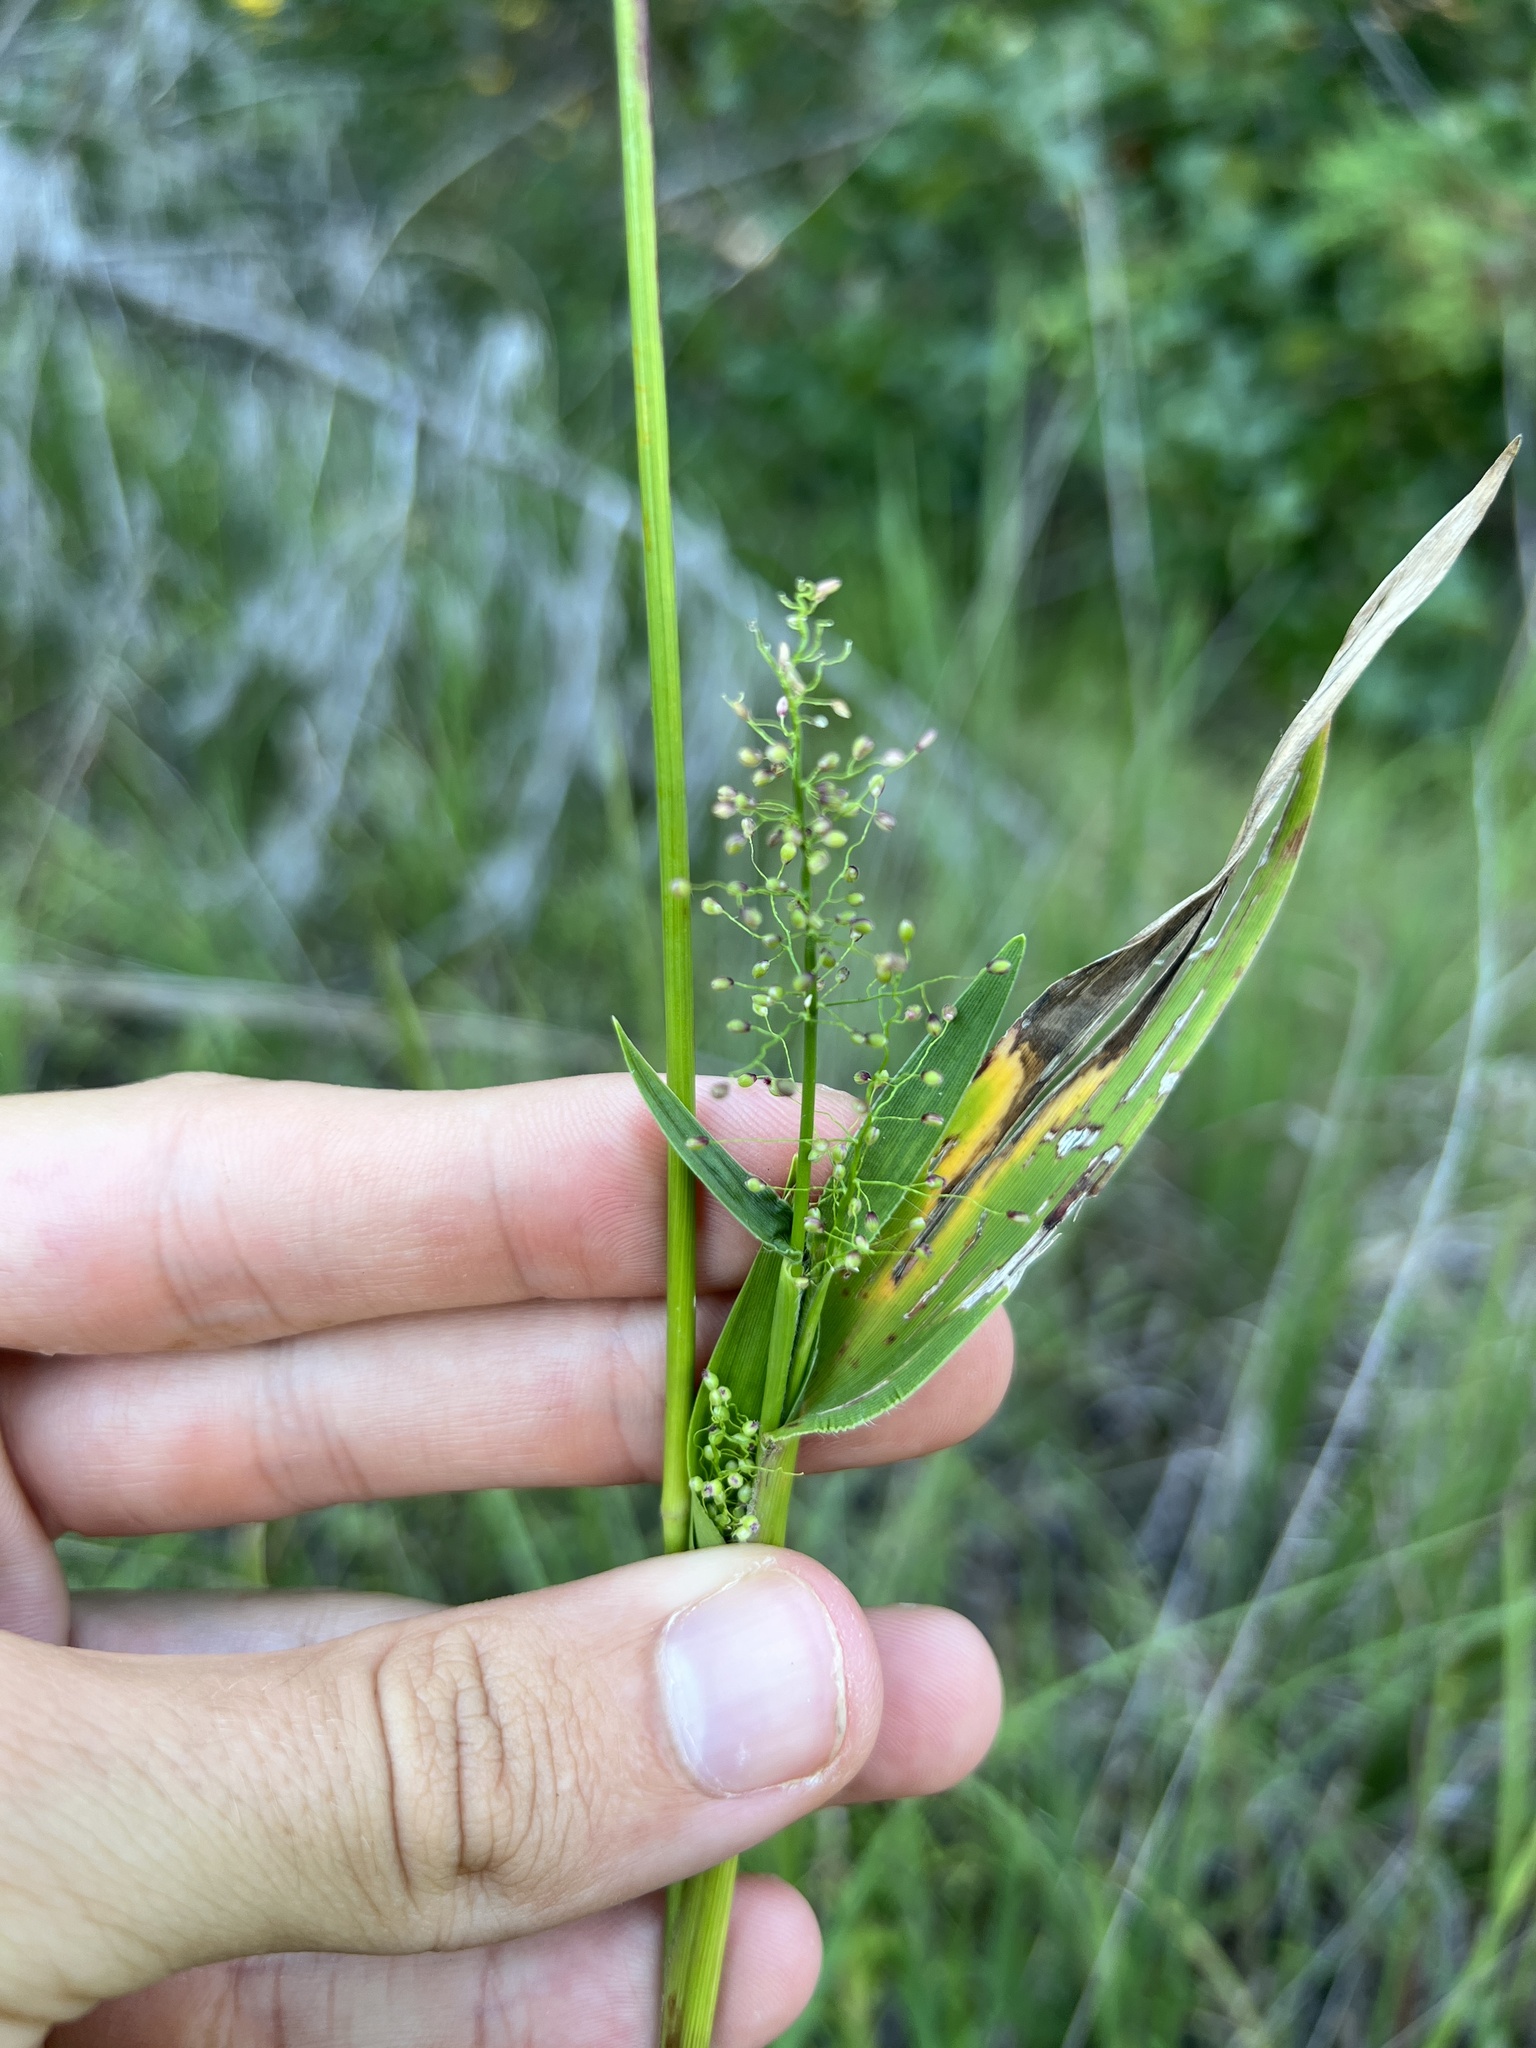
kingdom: Plantae
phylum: Tracheophyta
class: Liliopsida
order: Poales
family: Poaceae
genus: Dichanthelium
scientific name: Dichanthelium sphaerocarpon
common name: Round-fruited panicgrass
